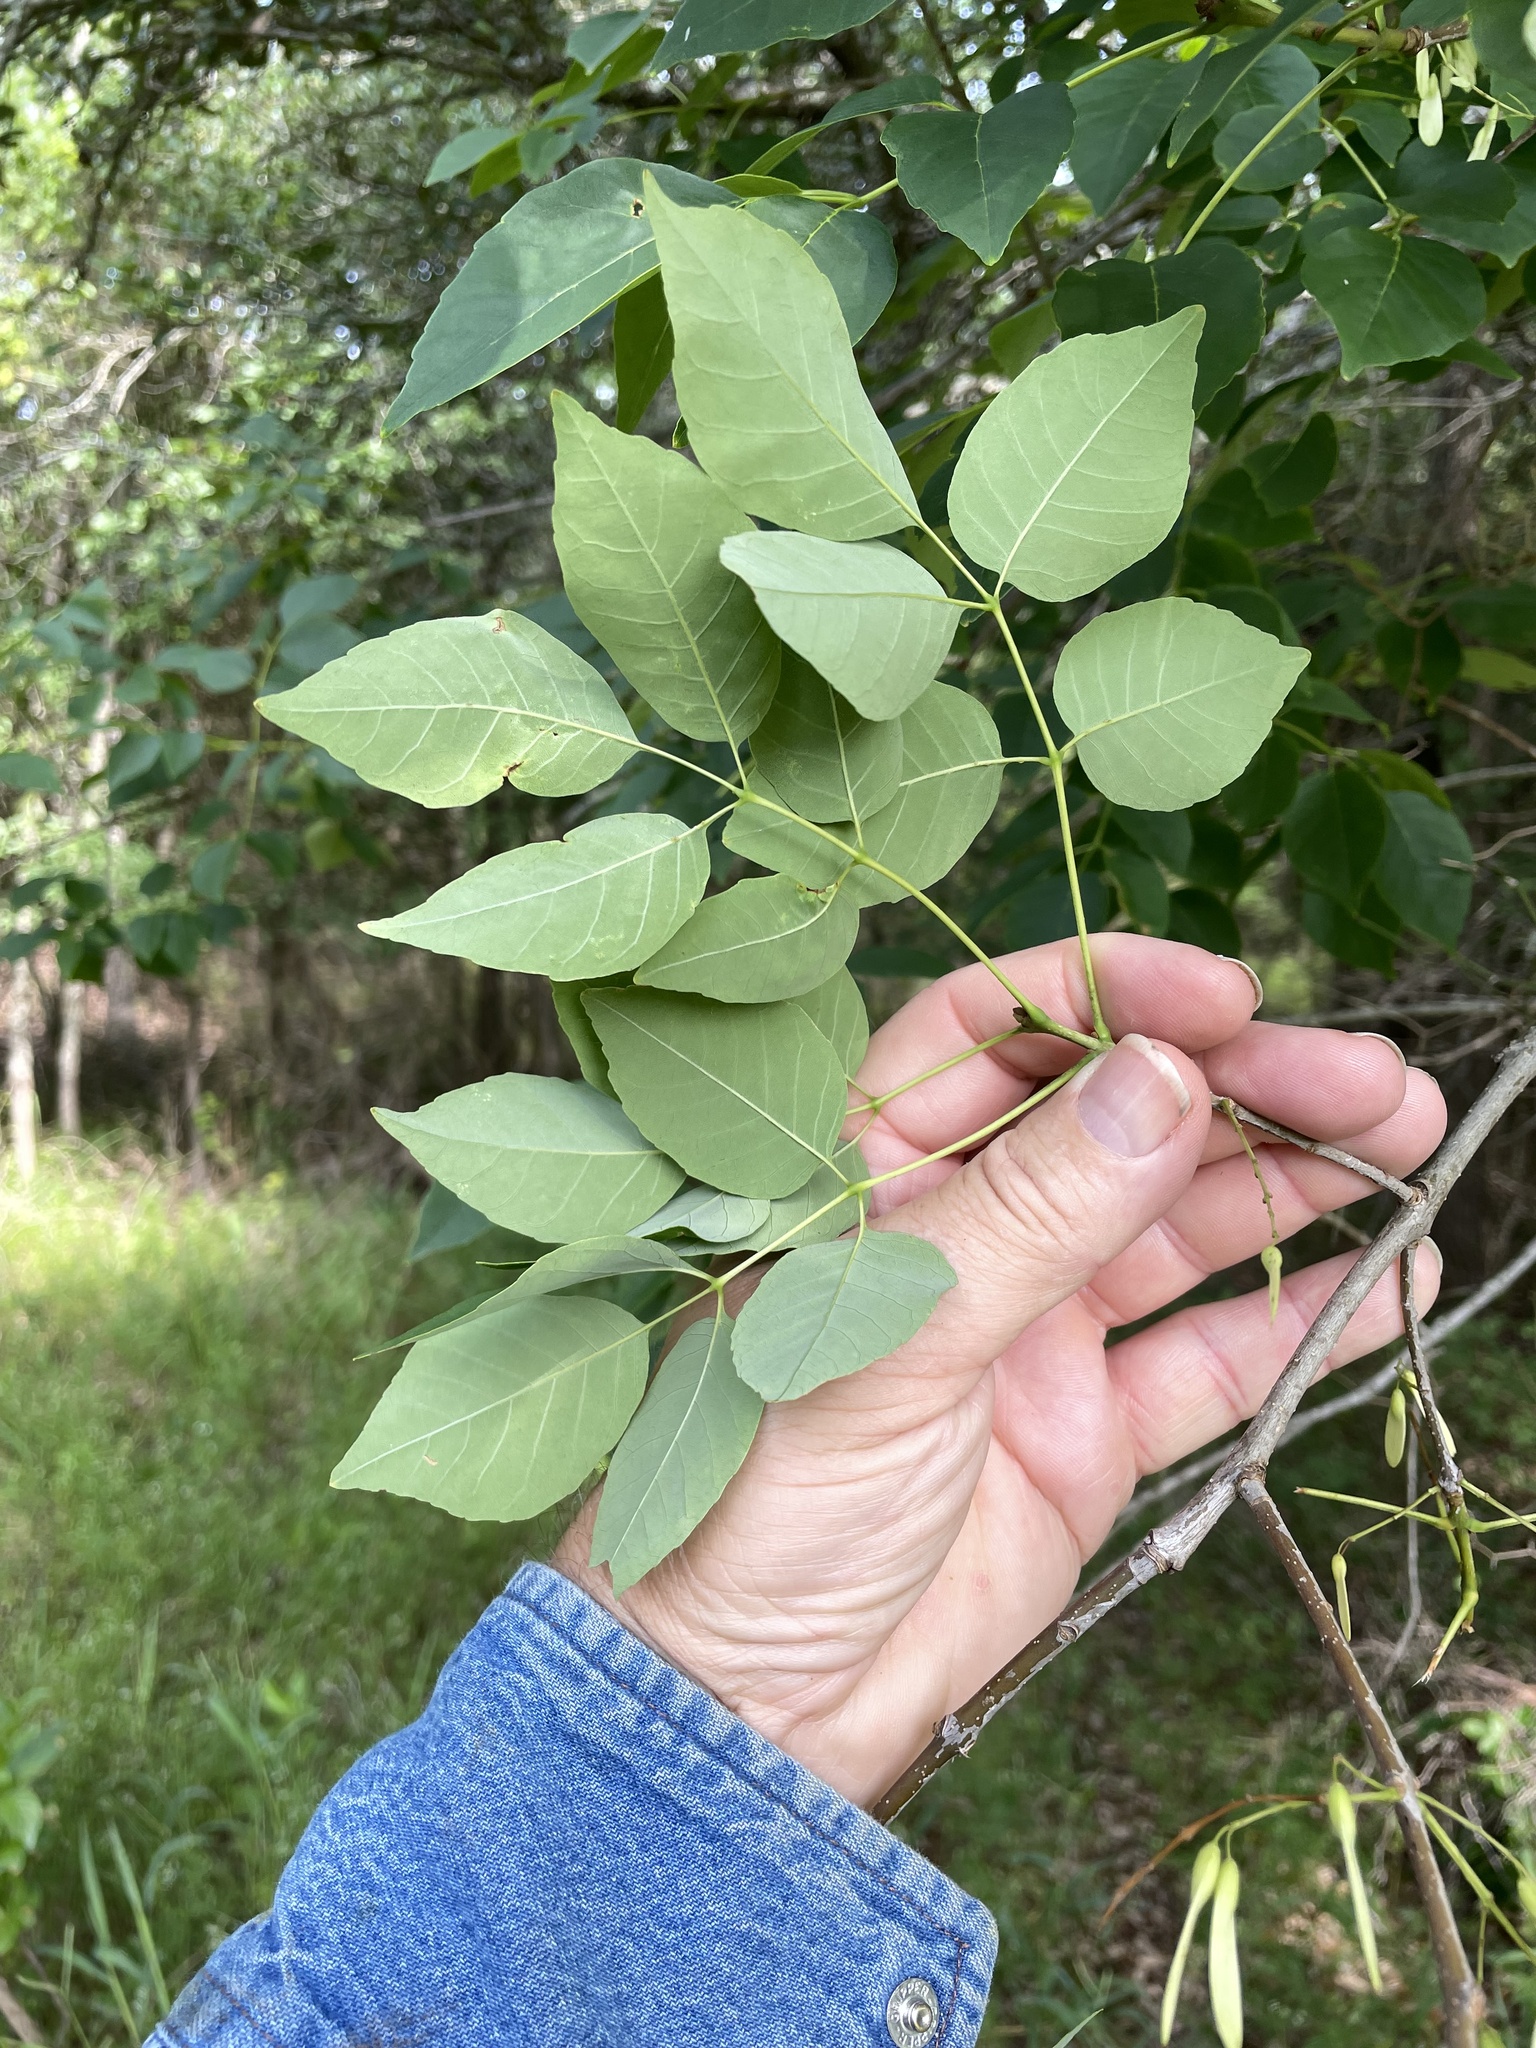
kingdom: Plantae
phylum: Tracheophyta
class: Magnoliopsida
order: Lamiales
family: Oleaceae
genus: Fraxinus
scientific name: Fraxinus albicans
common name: Texas ash
